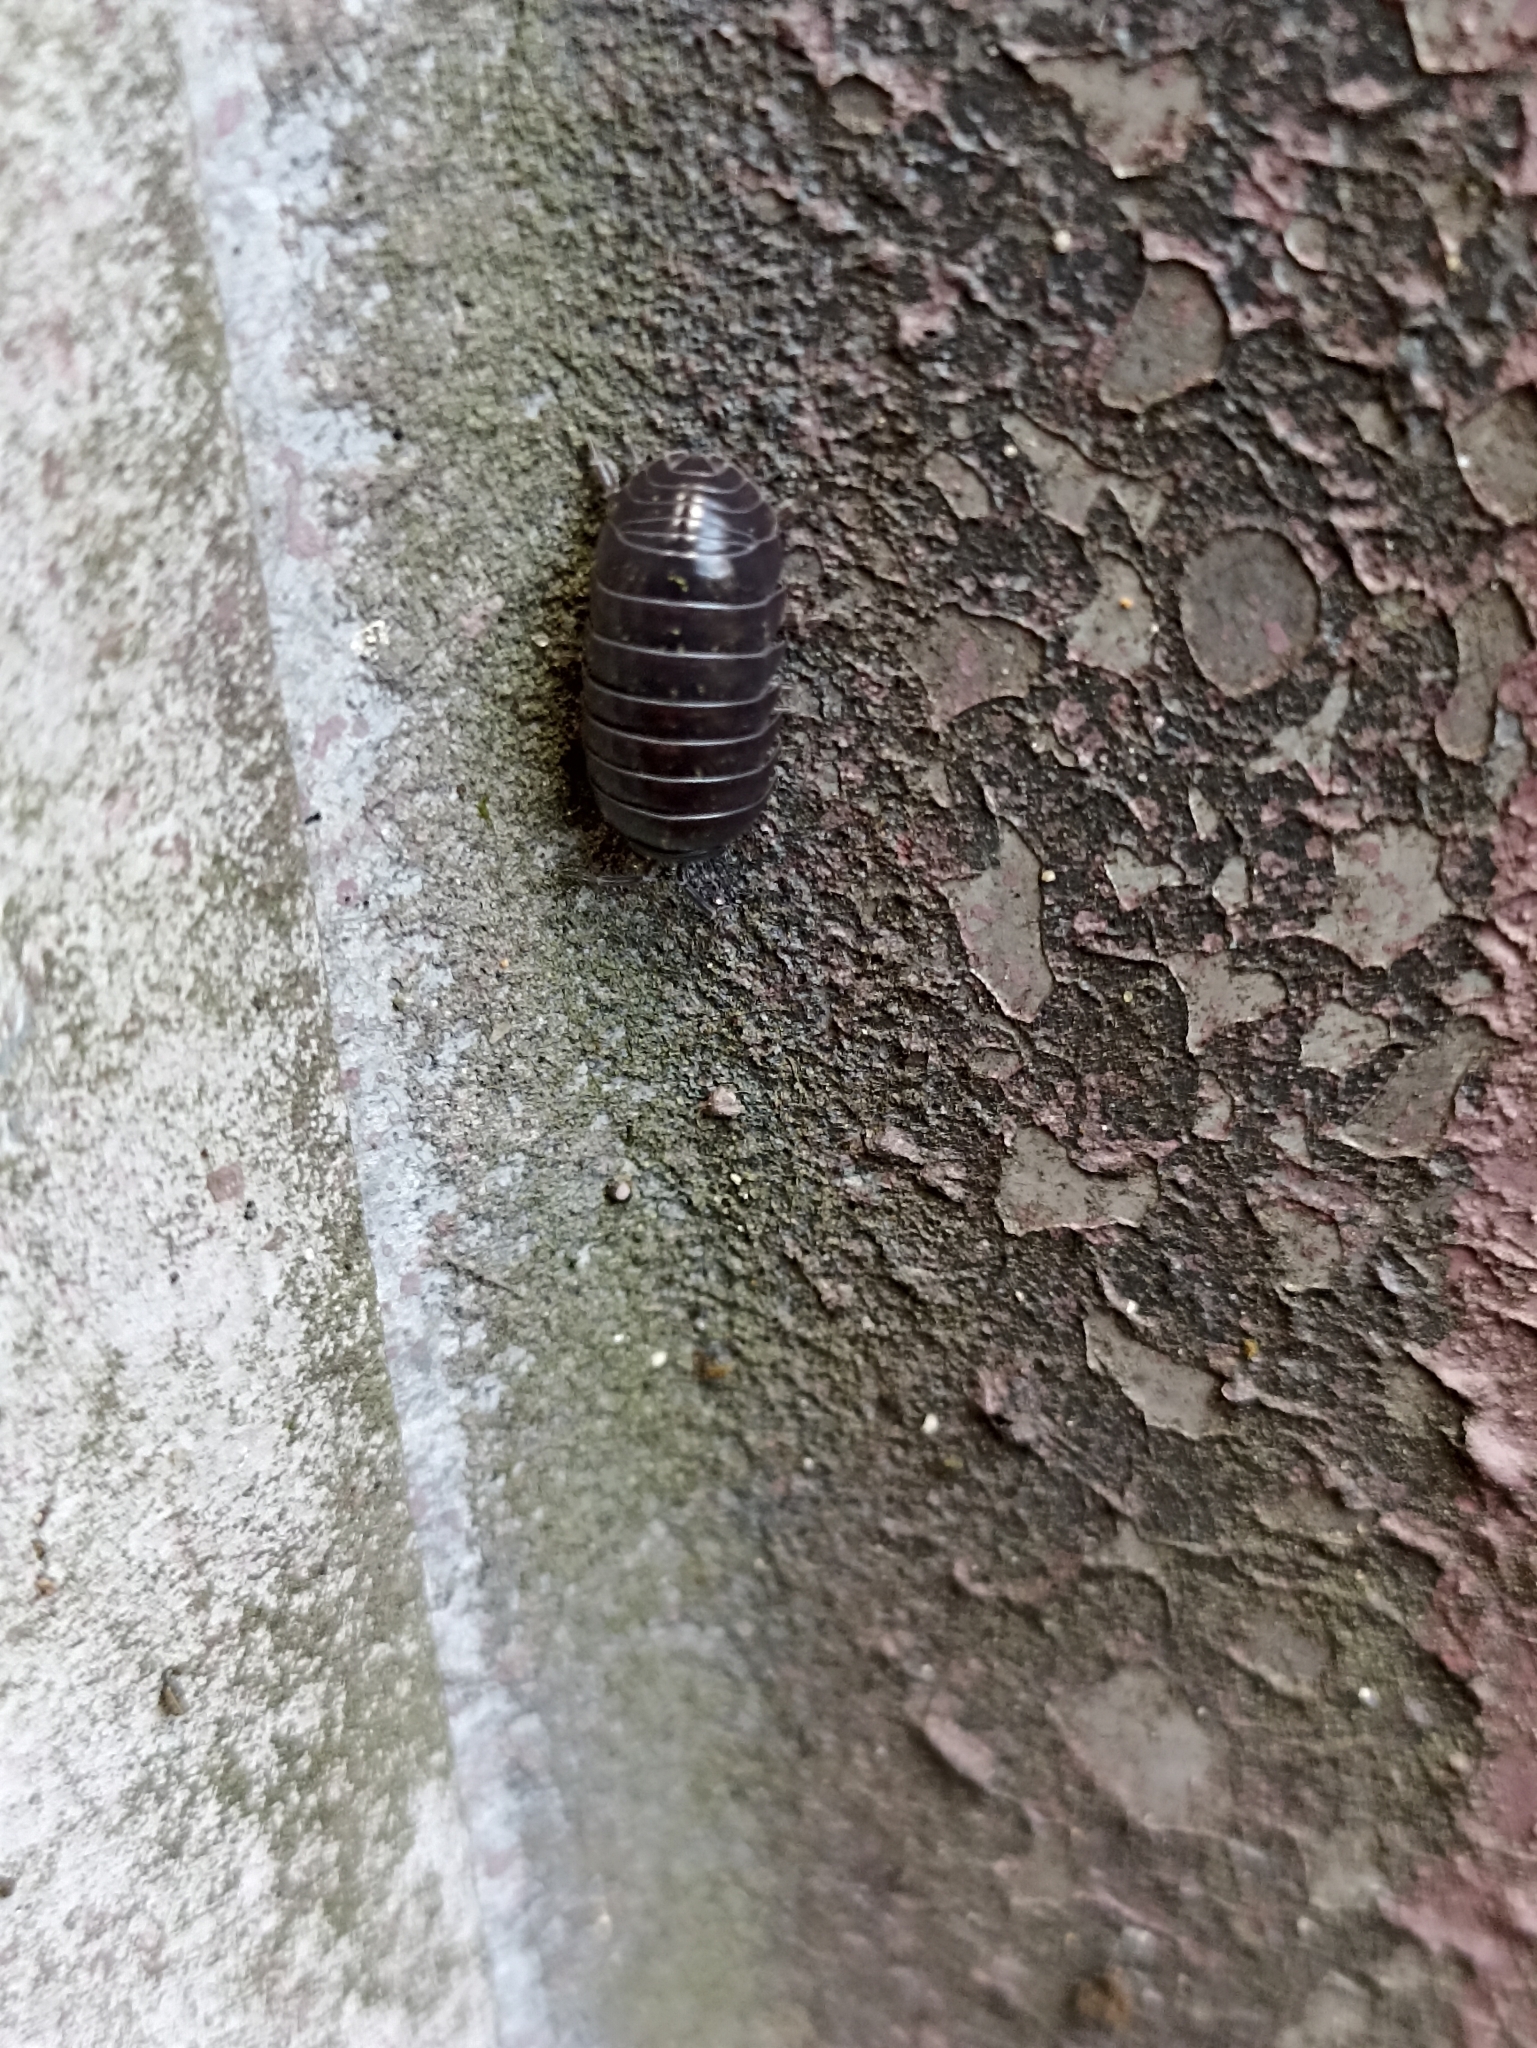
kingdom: Animalia
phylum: Arthropoda
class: Malacostraca
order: Isopoda
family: Armadillidiidae
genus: Armadillidium
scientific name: Armadillidium vulgare
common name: Common pill woodlouse
